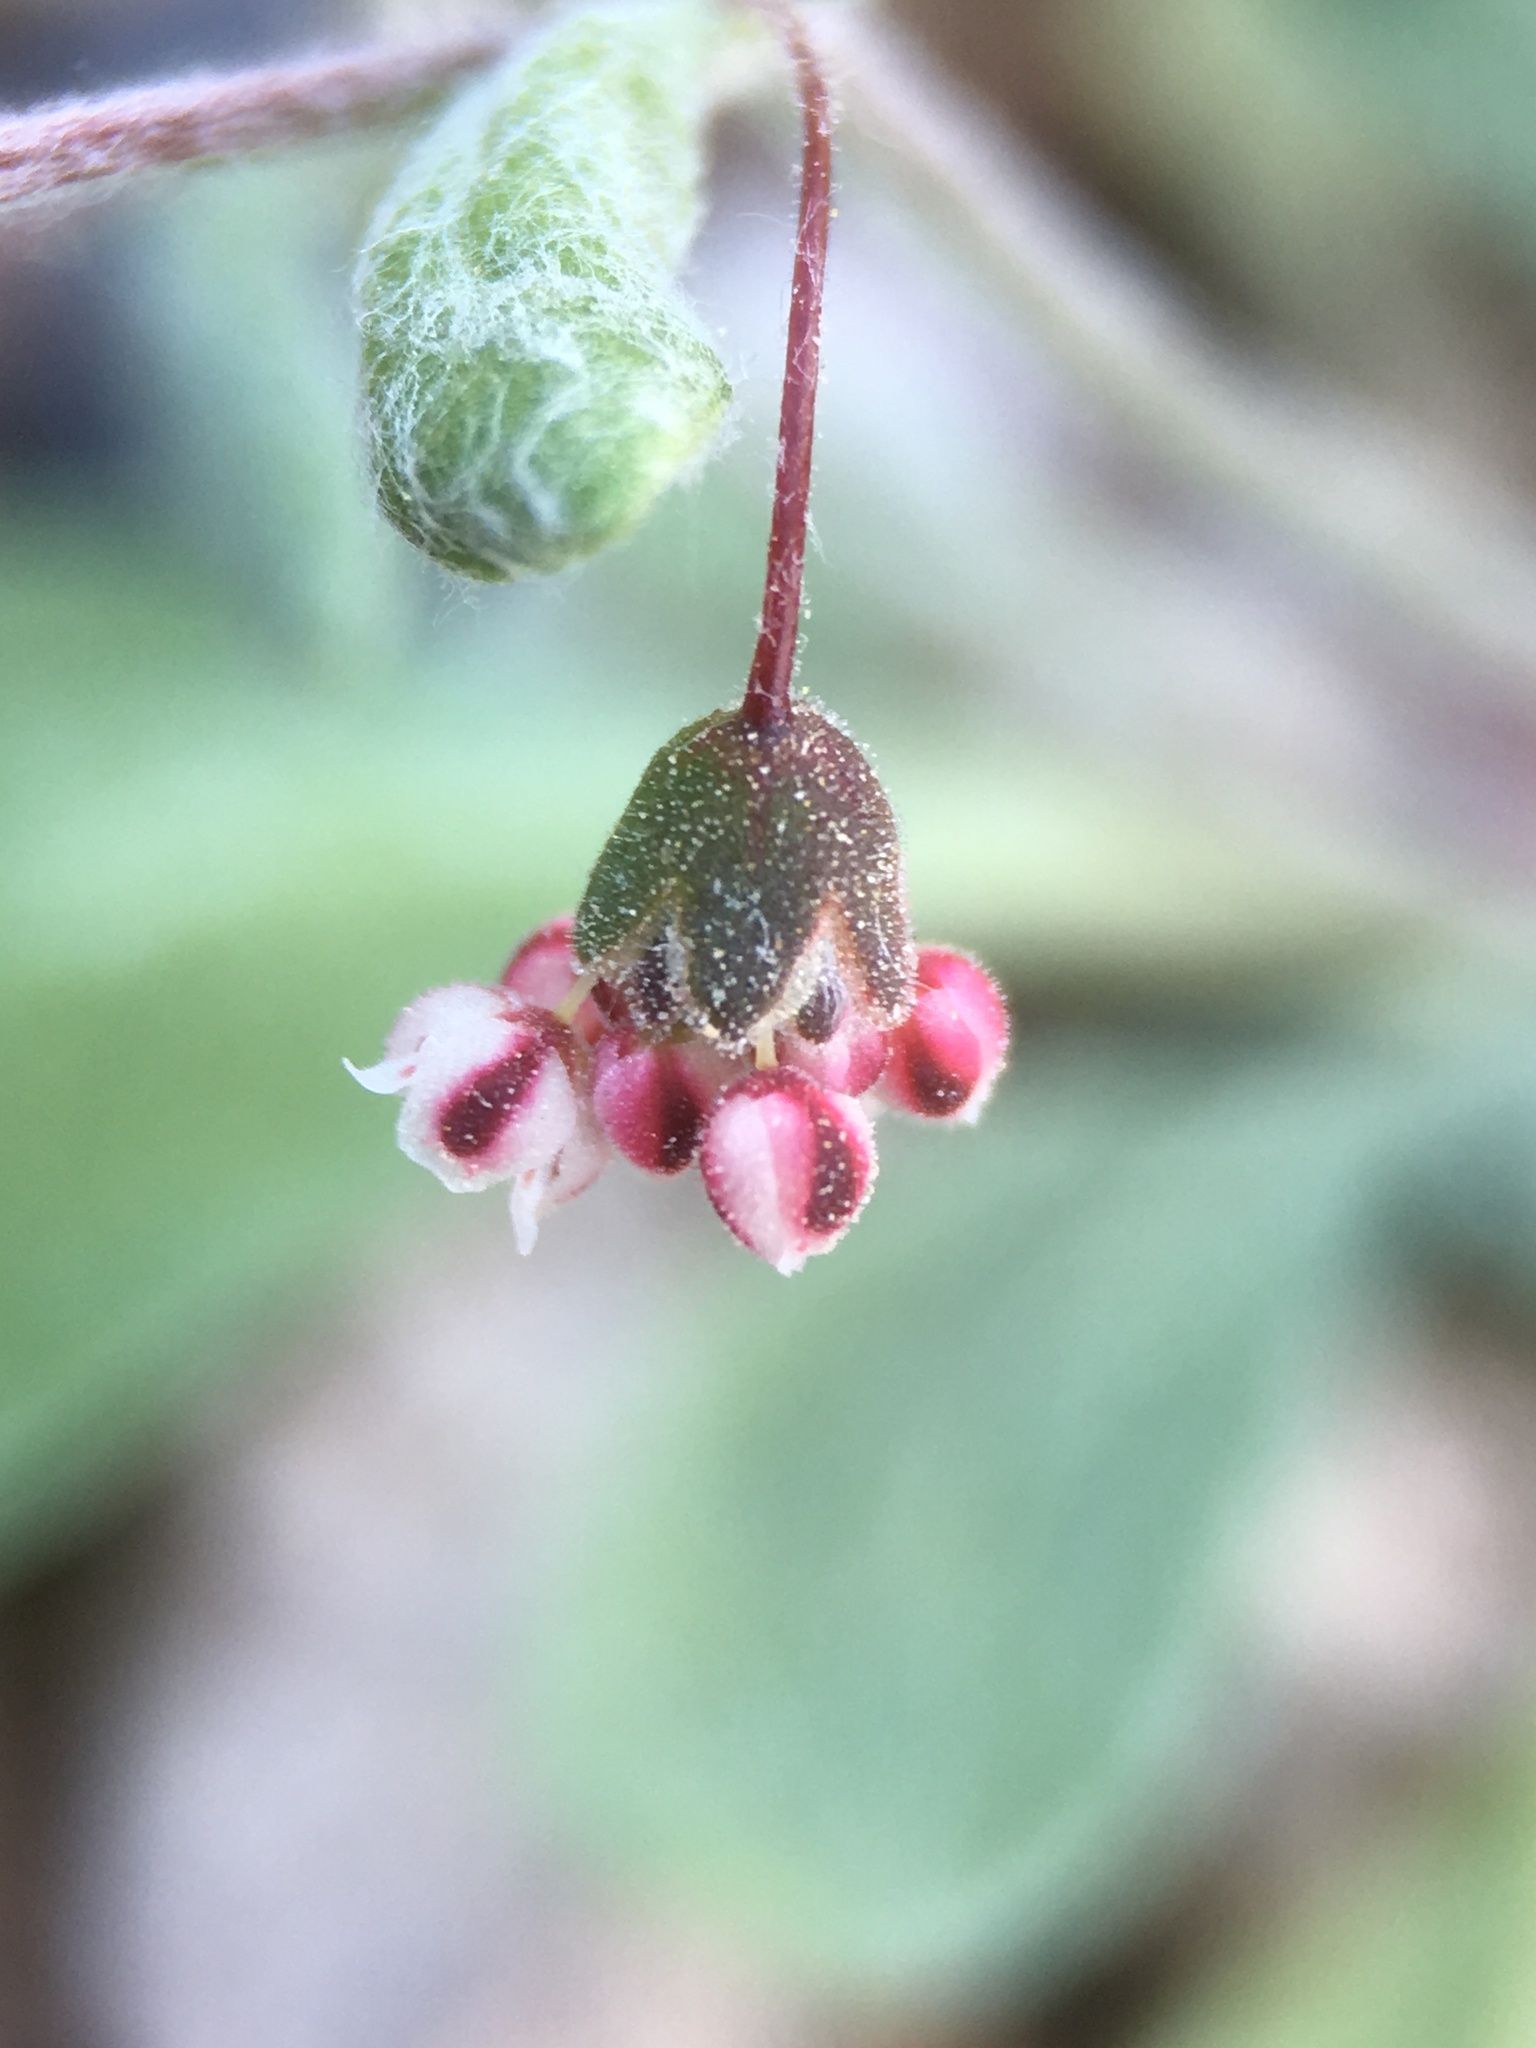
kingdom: Plantae
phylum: Tracheophyta
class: Magnoliopsida
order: Caryophyllales
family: Polygonaceae
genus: Eriogonum
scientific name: Eriogonum maculatum
